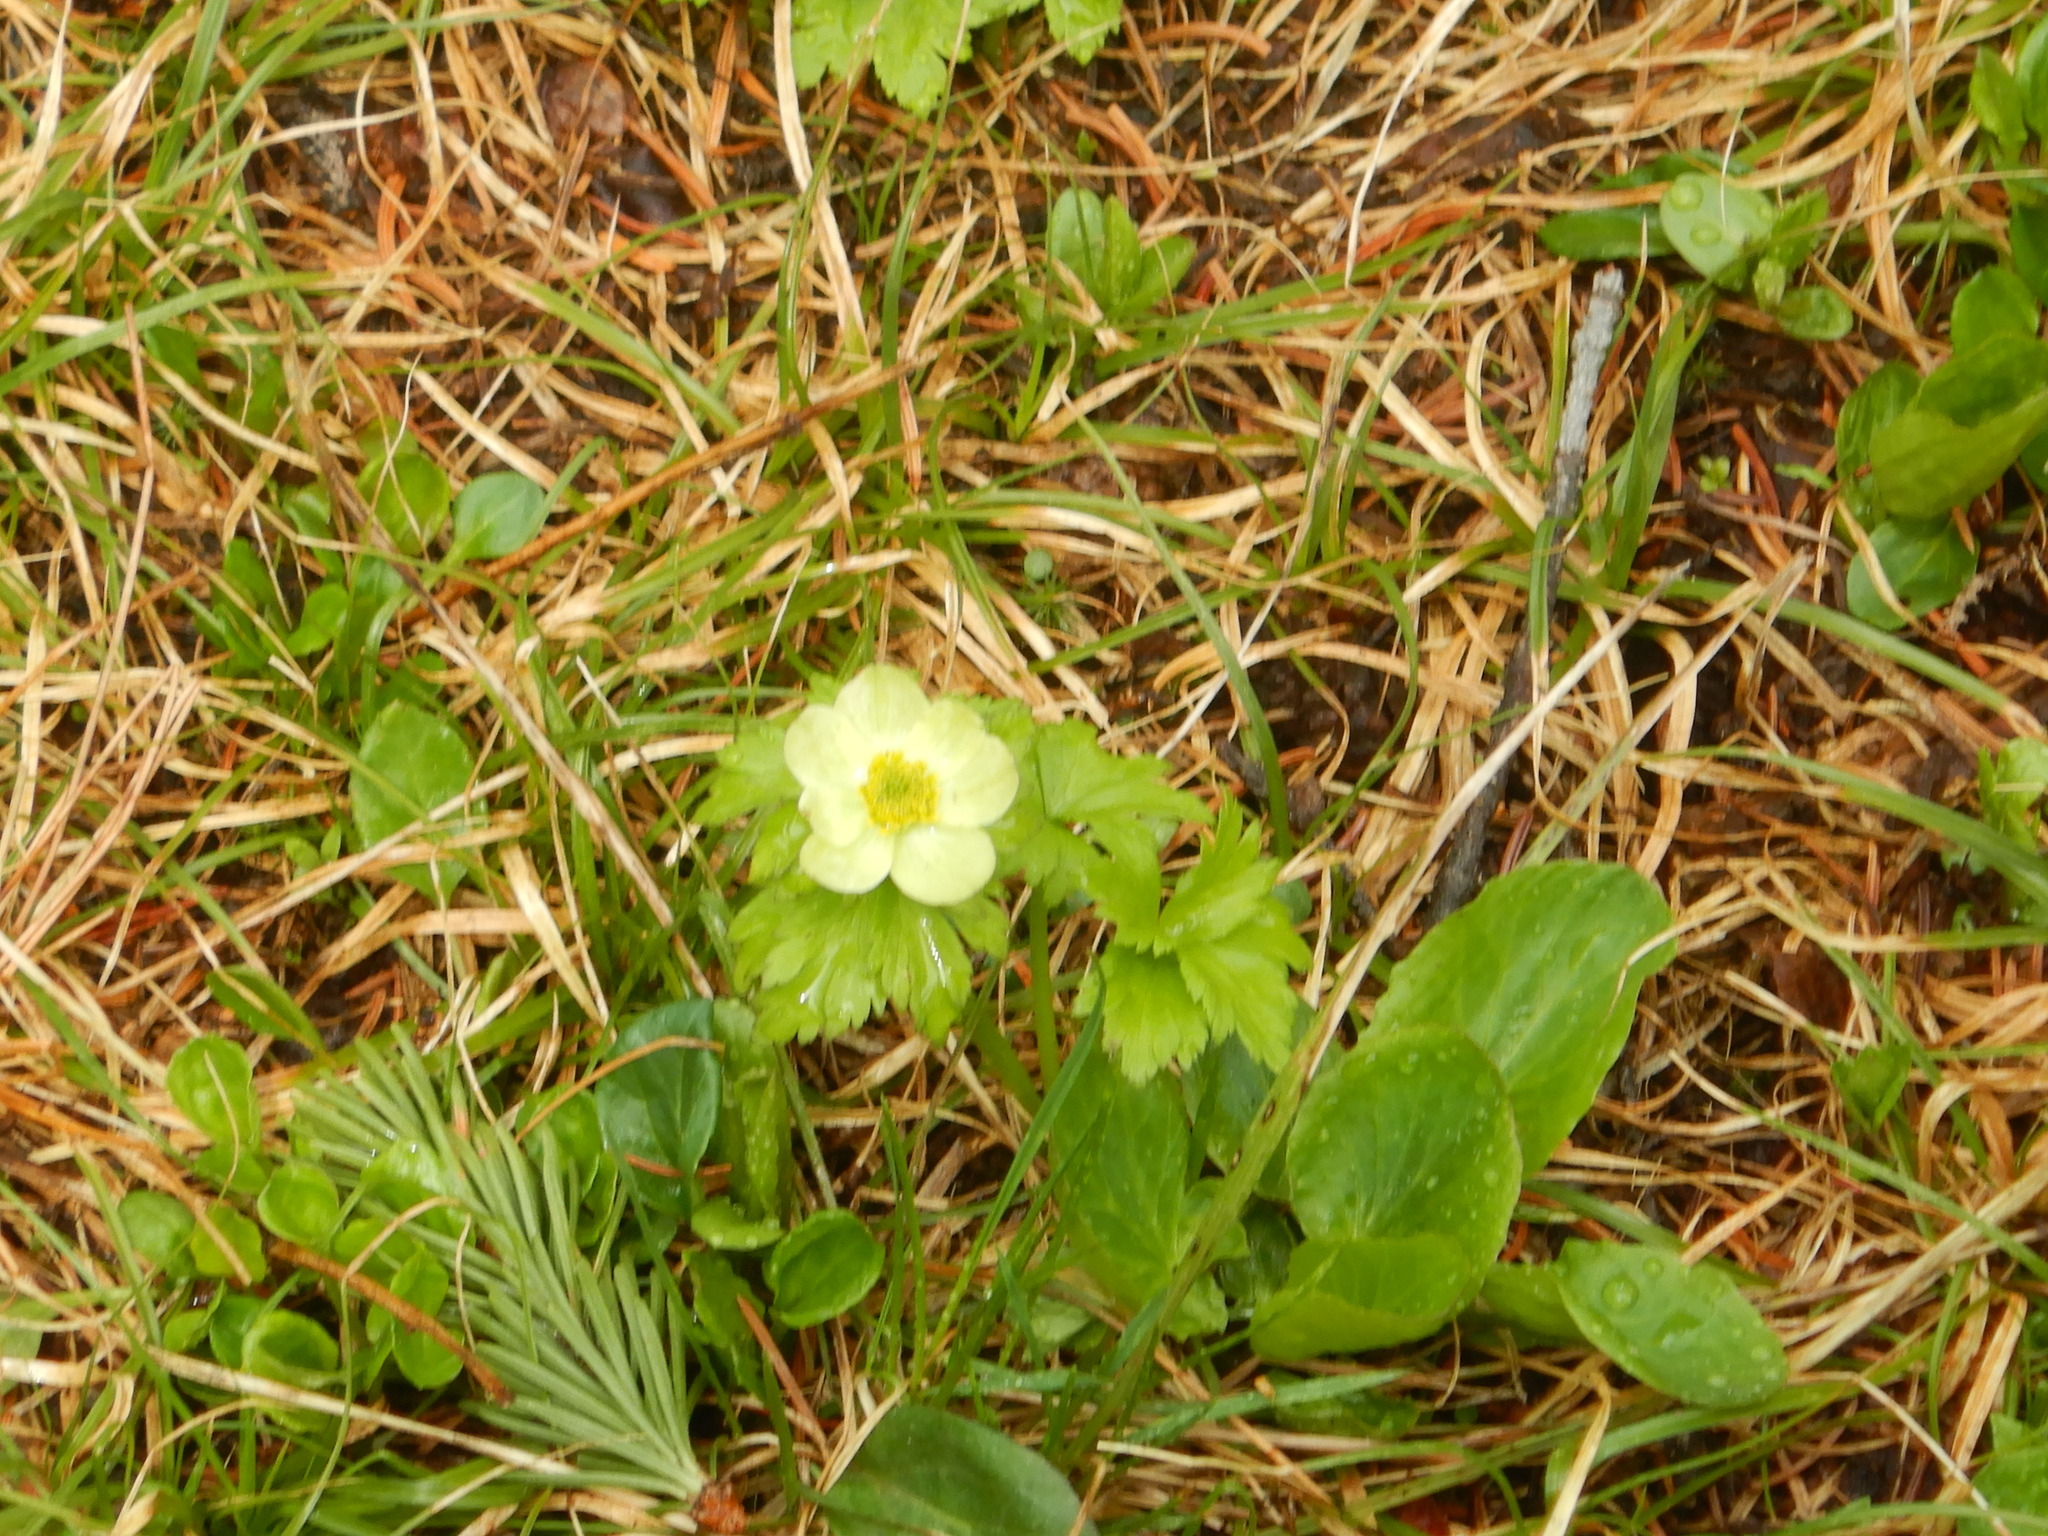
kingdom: Plantae
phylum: Tracheophyta
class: Magnoliopsida
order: Ranunculales
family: Ranunculaceae
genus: Trollius
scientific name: Trollius laxus
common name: American globeflower
